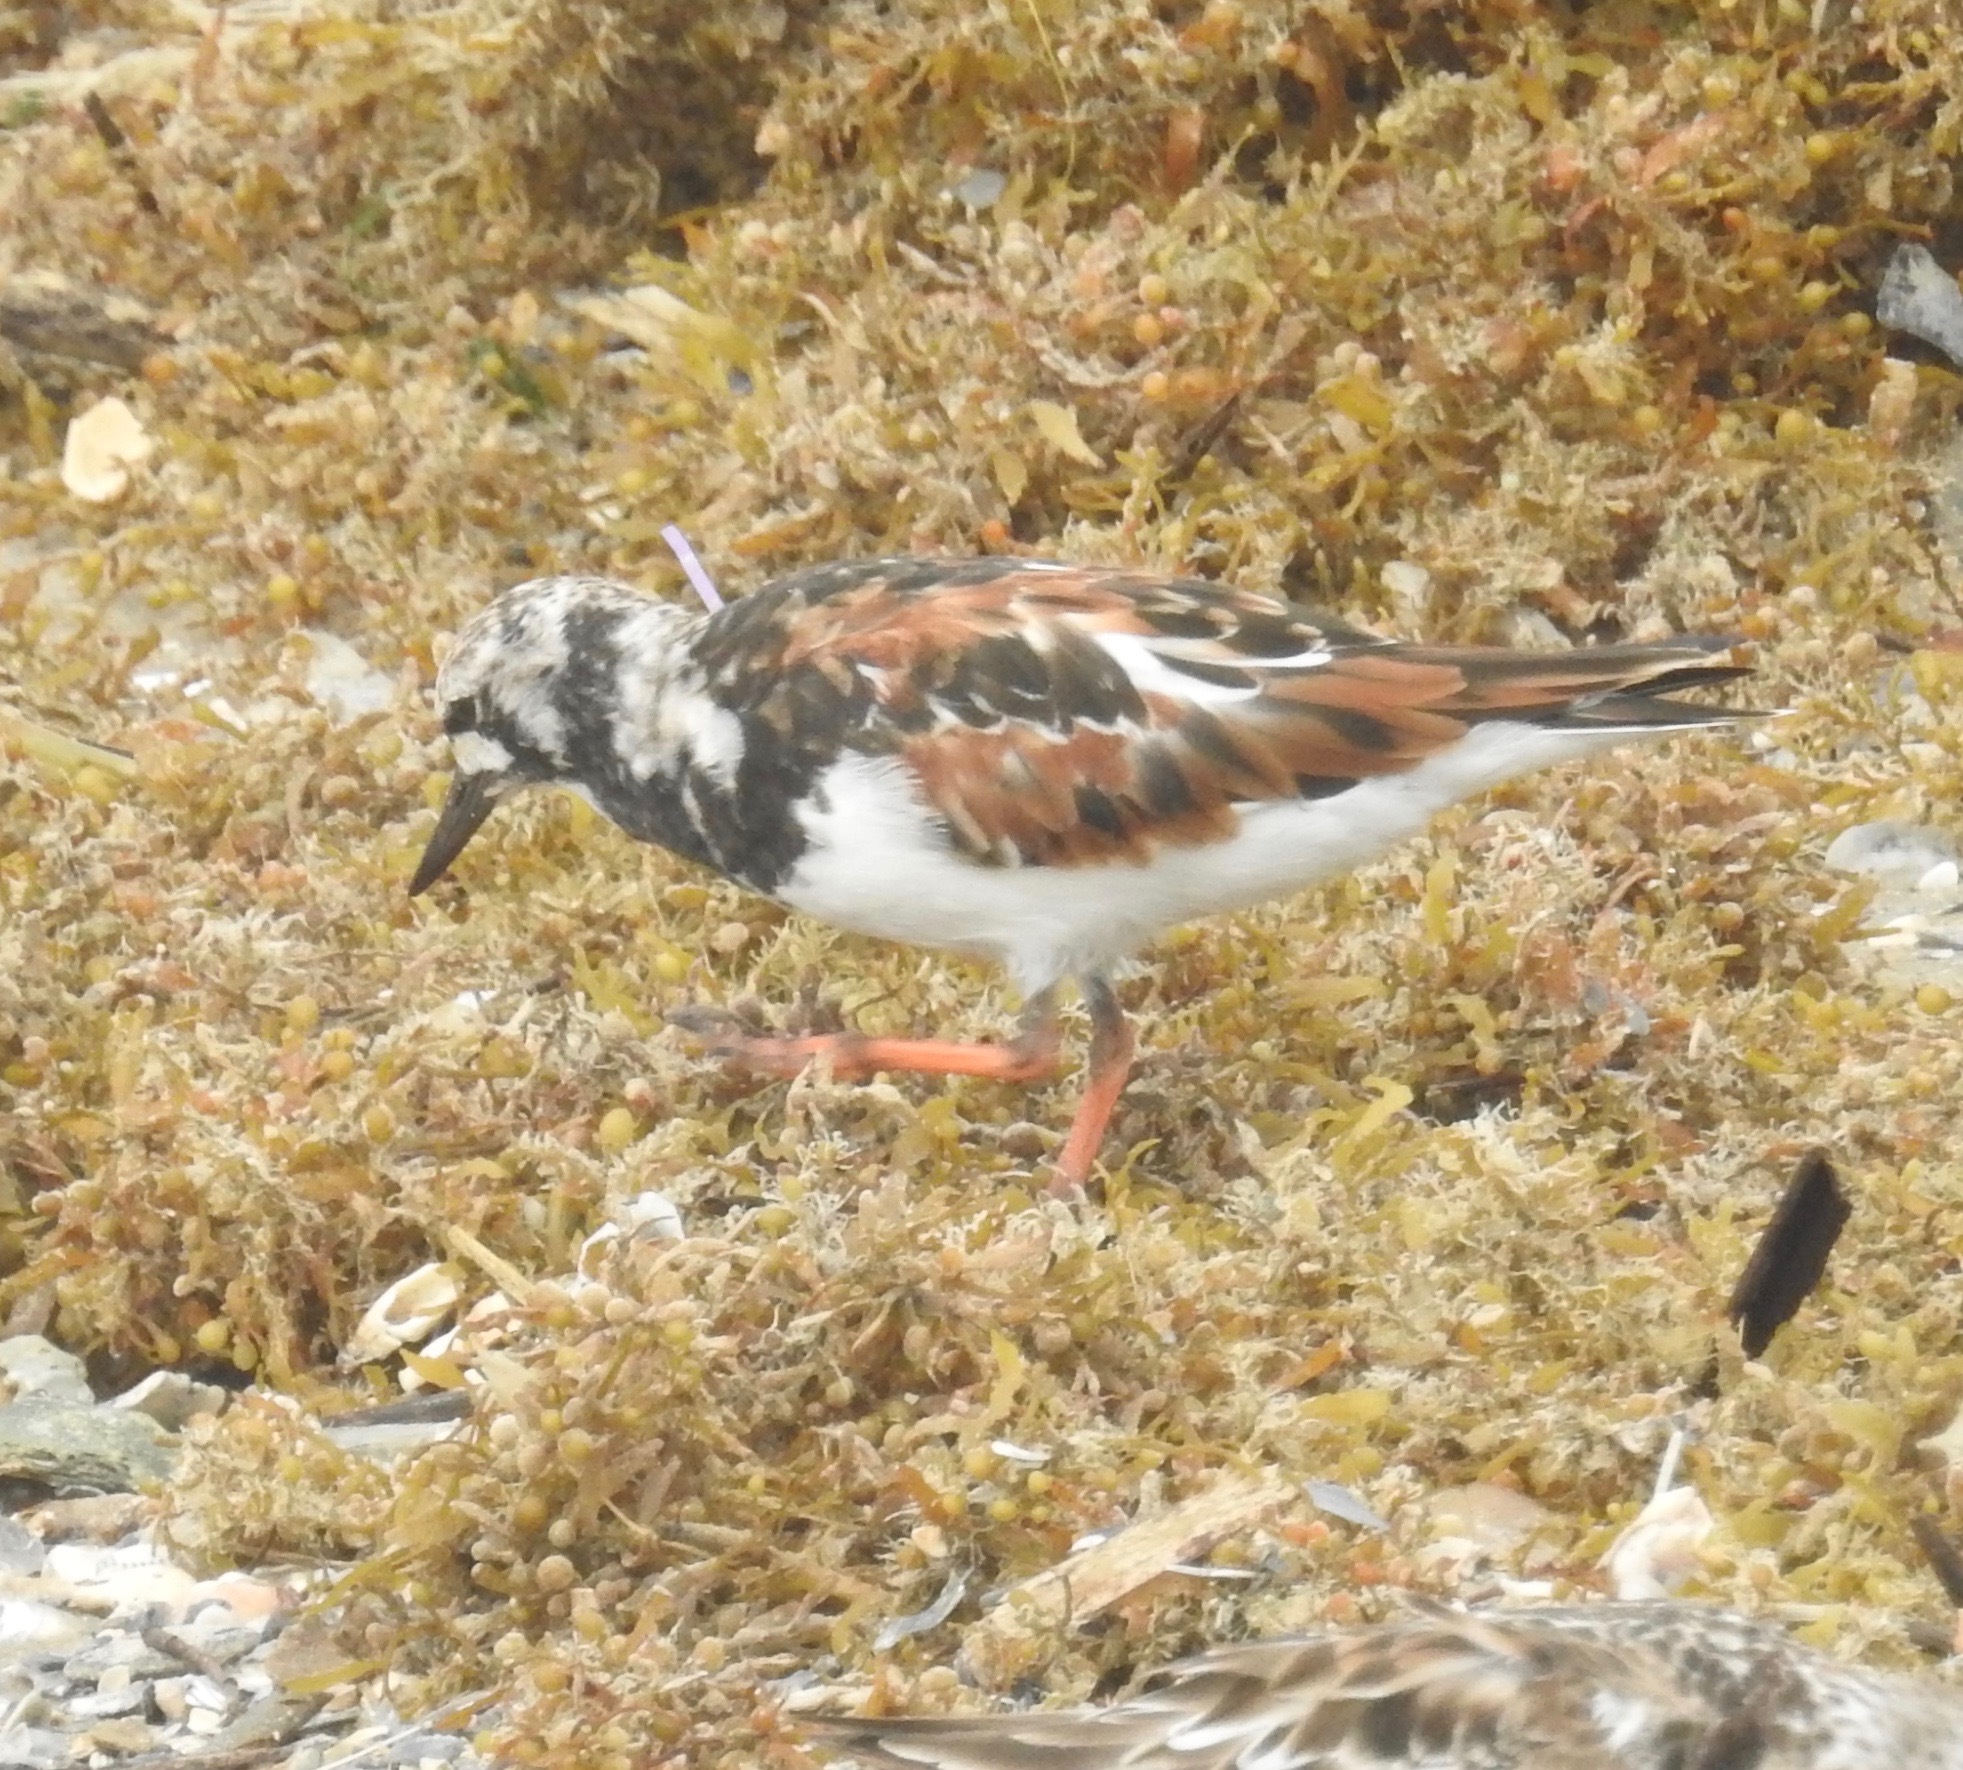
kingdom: Animalia
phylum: Chordata
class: Aves
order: Charadriiformes
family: Scolopacidae
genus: Arenaria
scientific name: Arenaria interpres
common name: Ruddy turnstone
